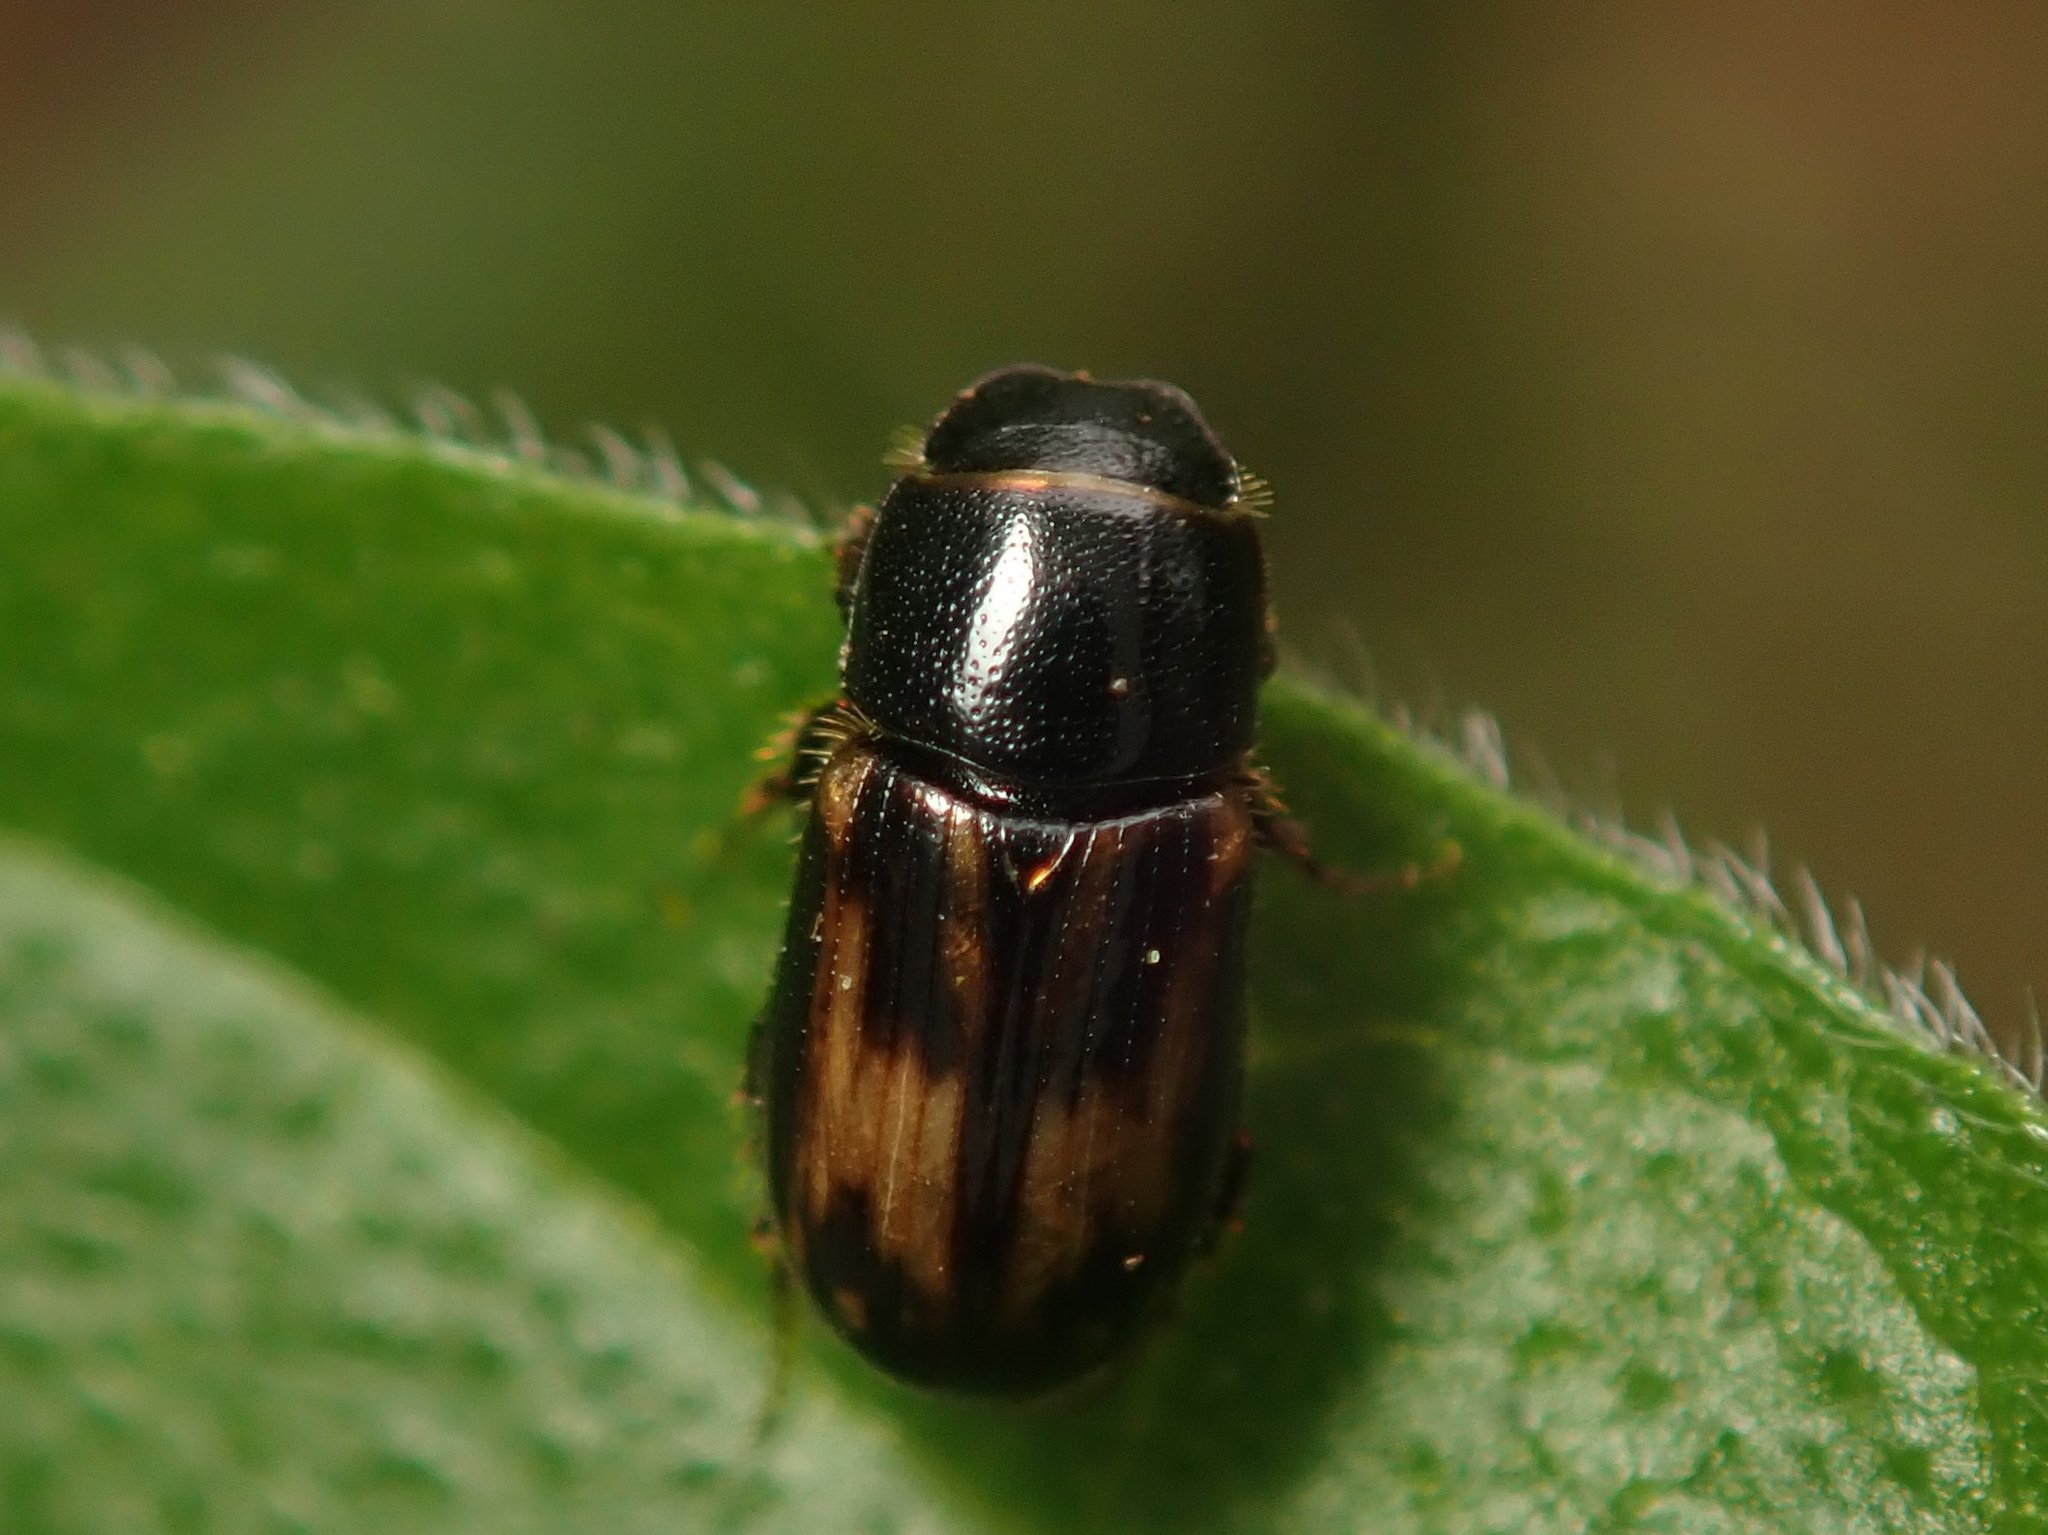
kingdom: Animalia
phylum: Arthropoda
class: Insecta
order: Coleoptera
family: Scarabaeidae
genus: Chilothorax
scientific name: Chilothorax distinctus
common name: Maculated dung beetle
